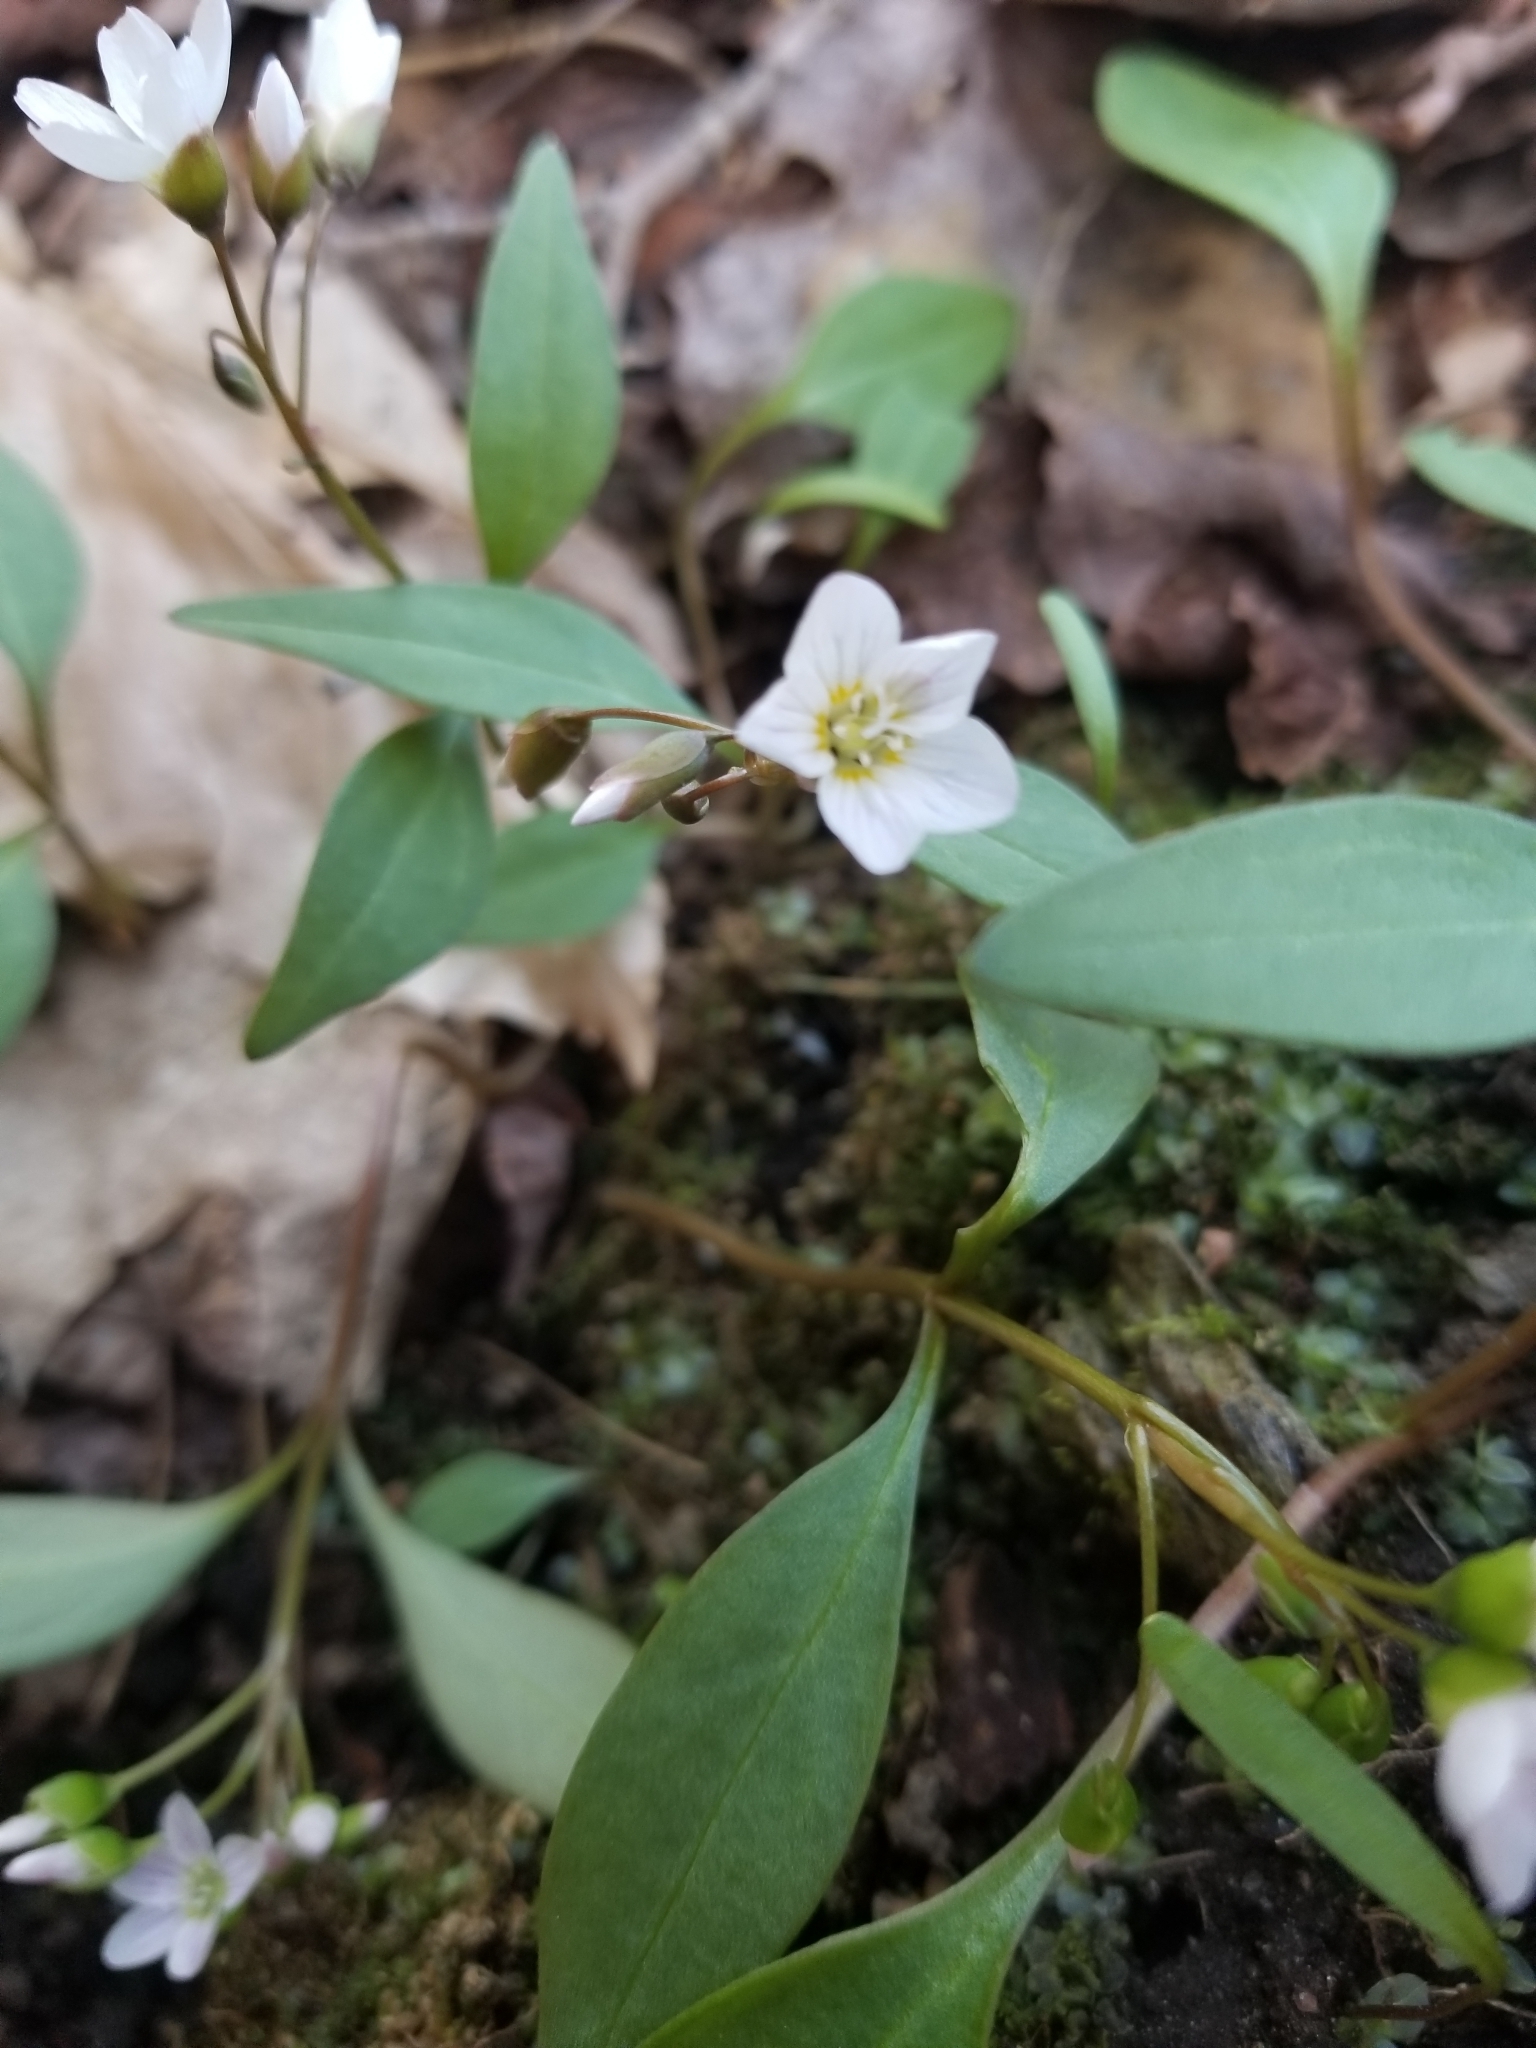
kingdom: Plantae
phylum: Tracheophyta
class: Magnoliopsida
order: Caryophyllales
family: Montiaceae
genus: Claytonia
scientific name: Claytonia caroliniana
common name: Carolina spring beauty
